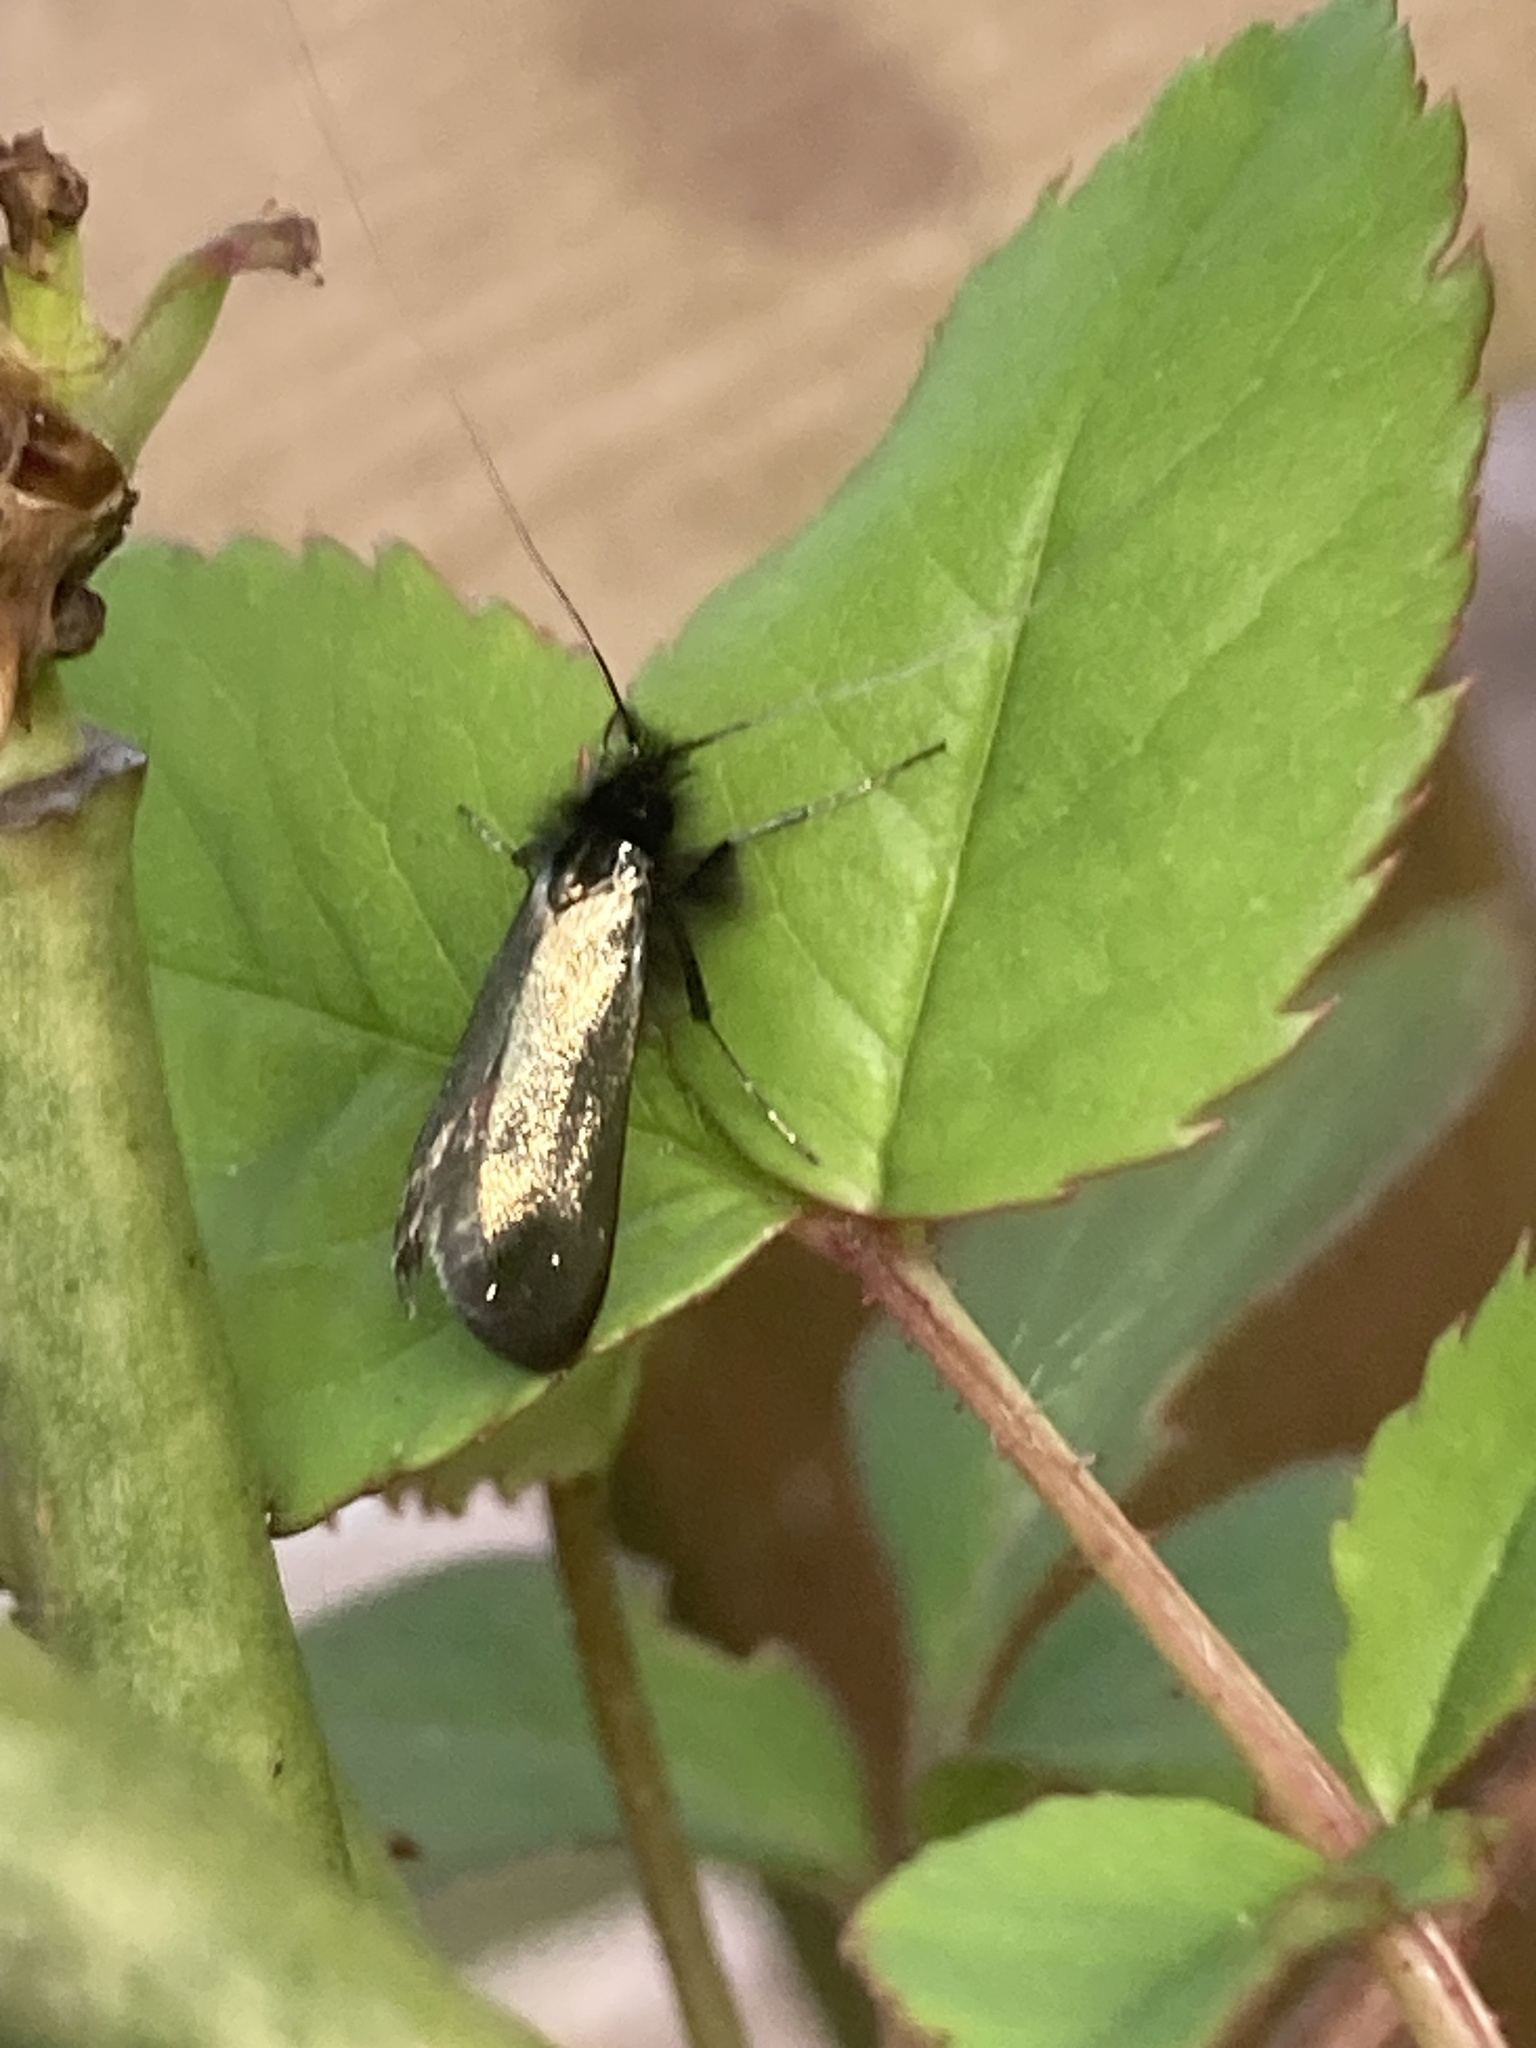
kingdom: Animalia
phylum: Arthropoda
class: Insecta
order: Lepidoptera
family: Adelidae
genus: Adela
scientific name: Adela viridella
